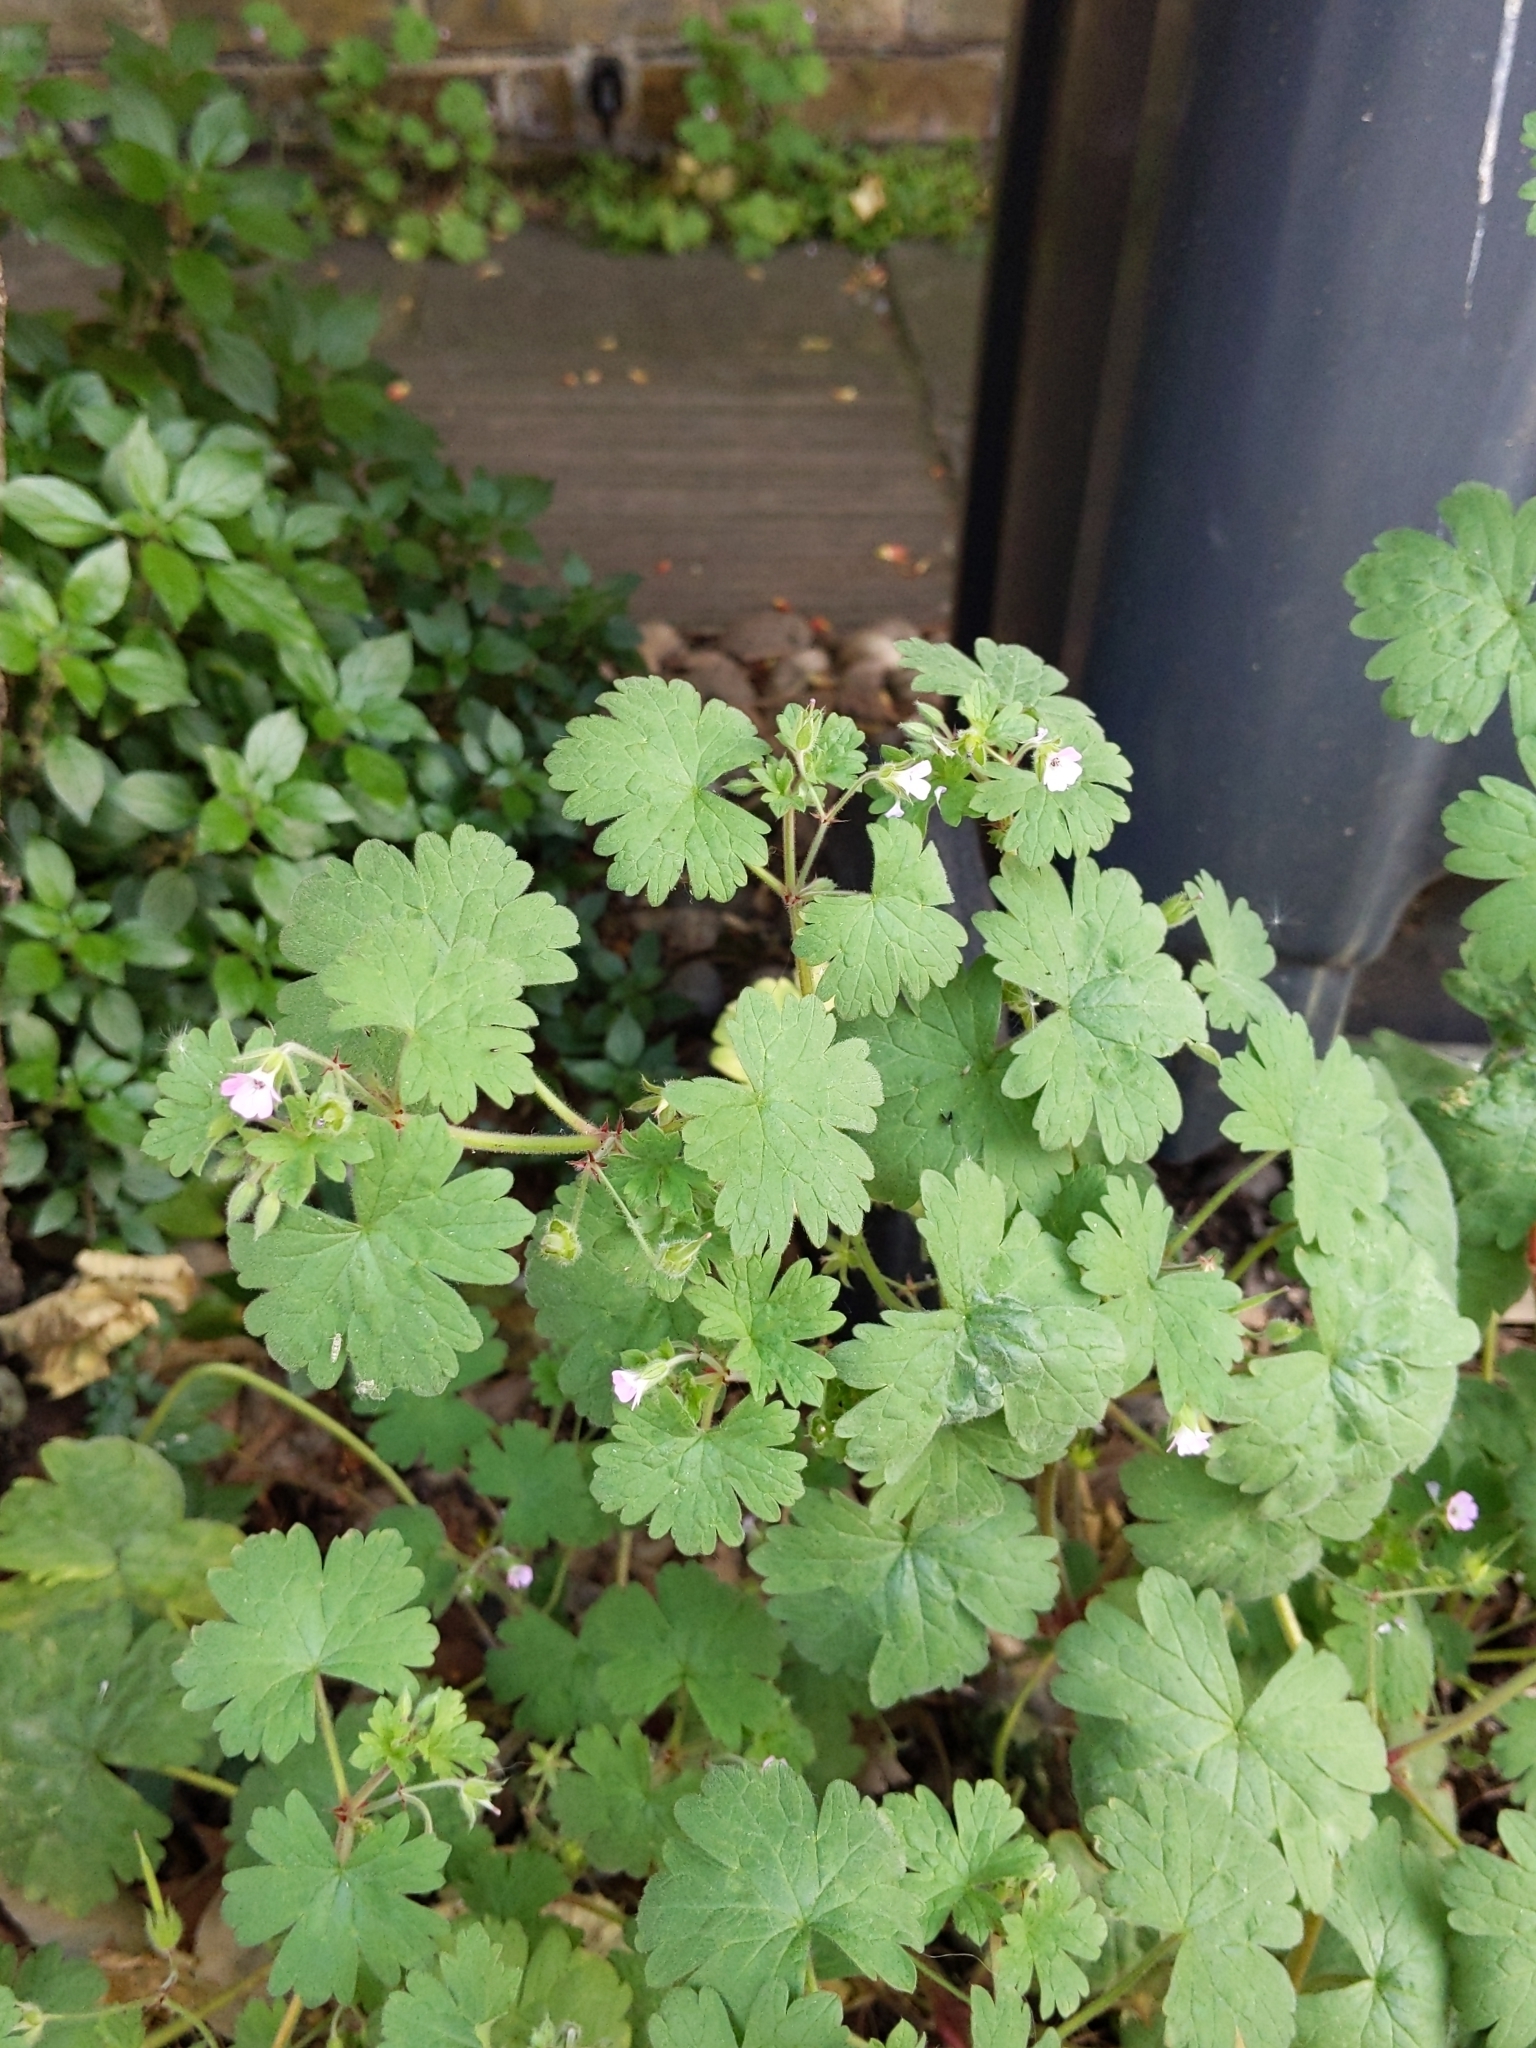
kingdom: Plantae
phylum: Tracheophyta
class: Magnoliopsida
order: Geraniales
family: Geraniaceae
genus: Geranium
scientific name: Geranium rotundifolium
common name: Round-leaved crane's-bill
